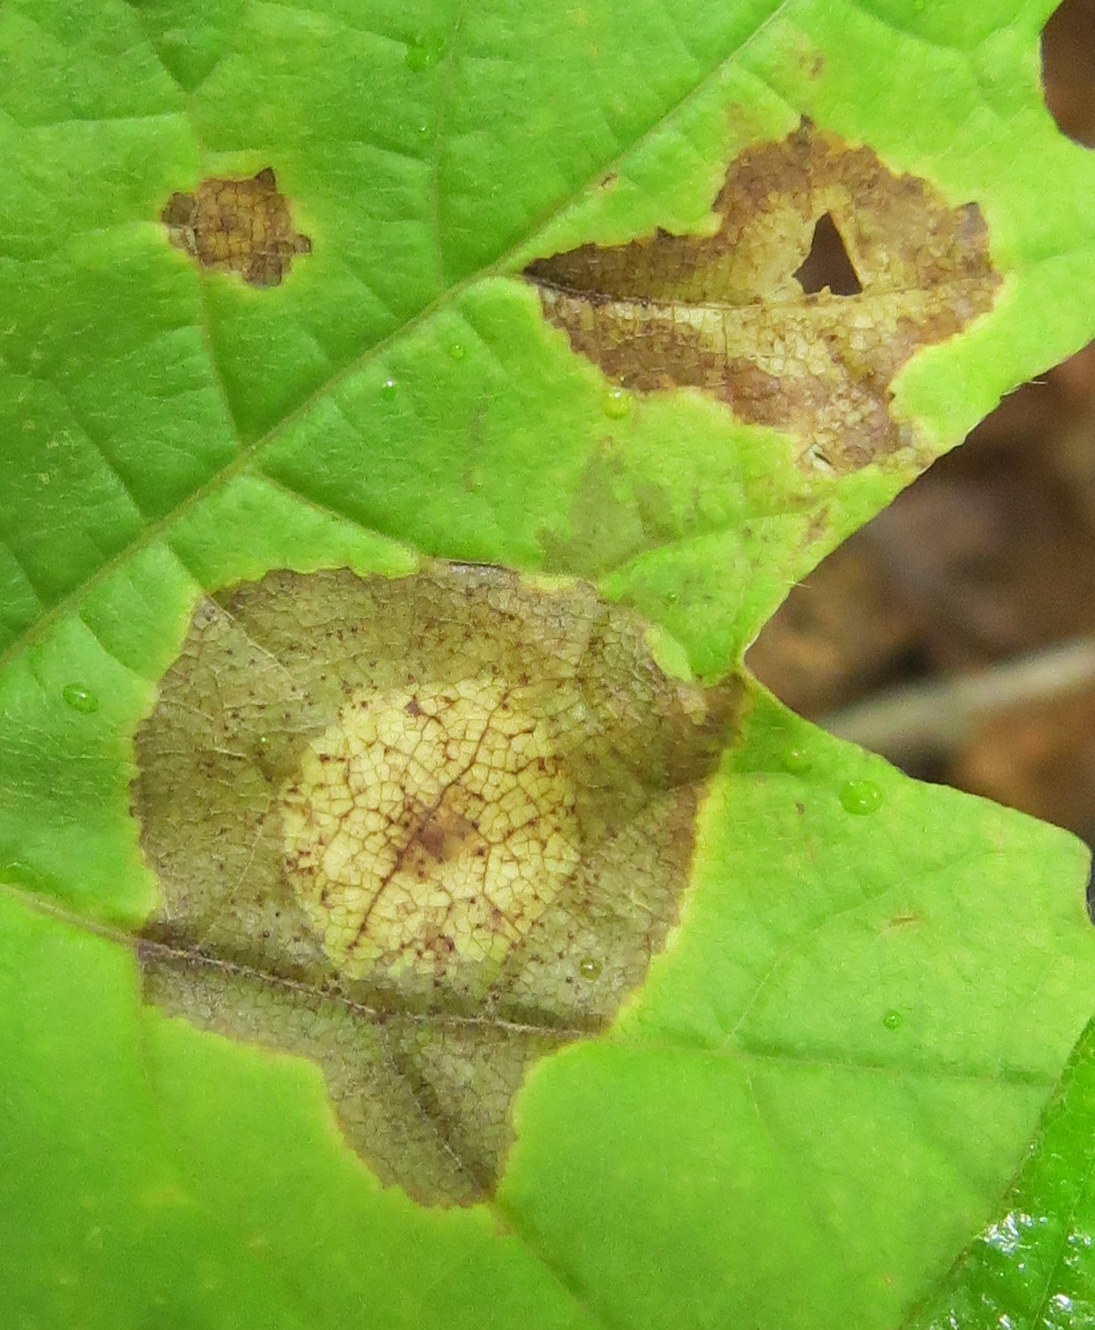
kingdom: Animalia
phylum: Arthropoda
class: Insecta
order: Diptera
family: Cecidomyiidae
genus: Acericecis
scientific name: Acericecis ocellaris
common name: Ocellate gall midge
